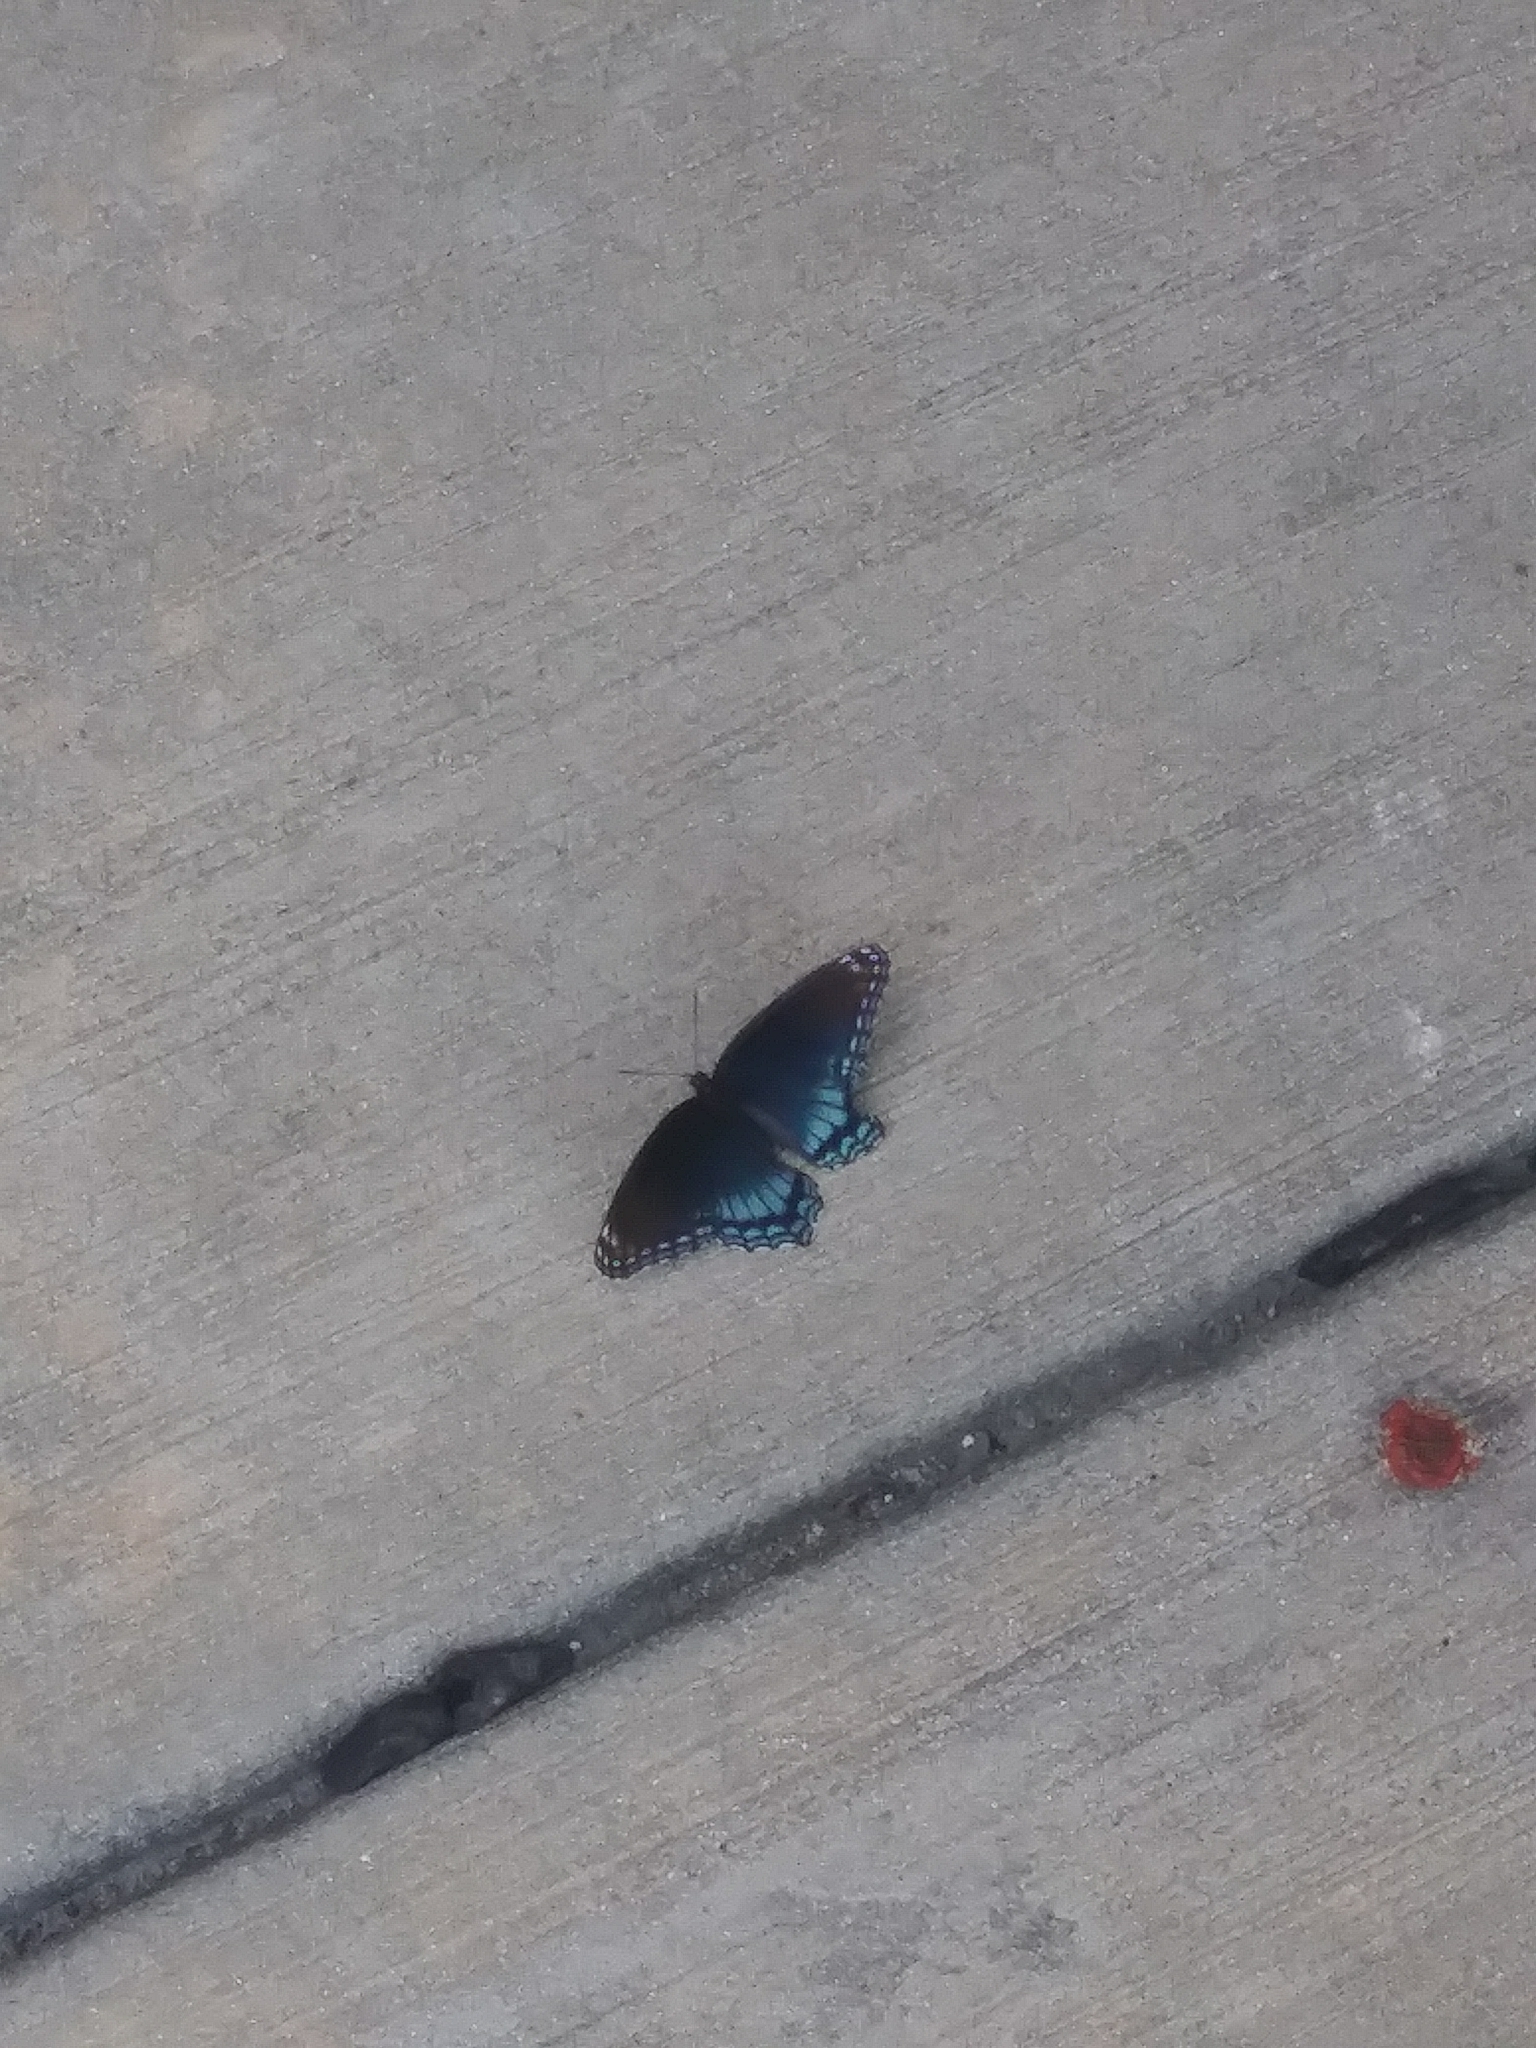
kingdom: Animalia
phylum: Arthropoda
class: Insecta
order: Lepidoptera
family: Nymphalidae
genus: Limenitis
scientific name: Limenitis astyanax
